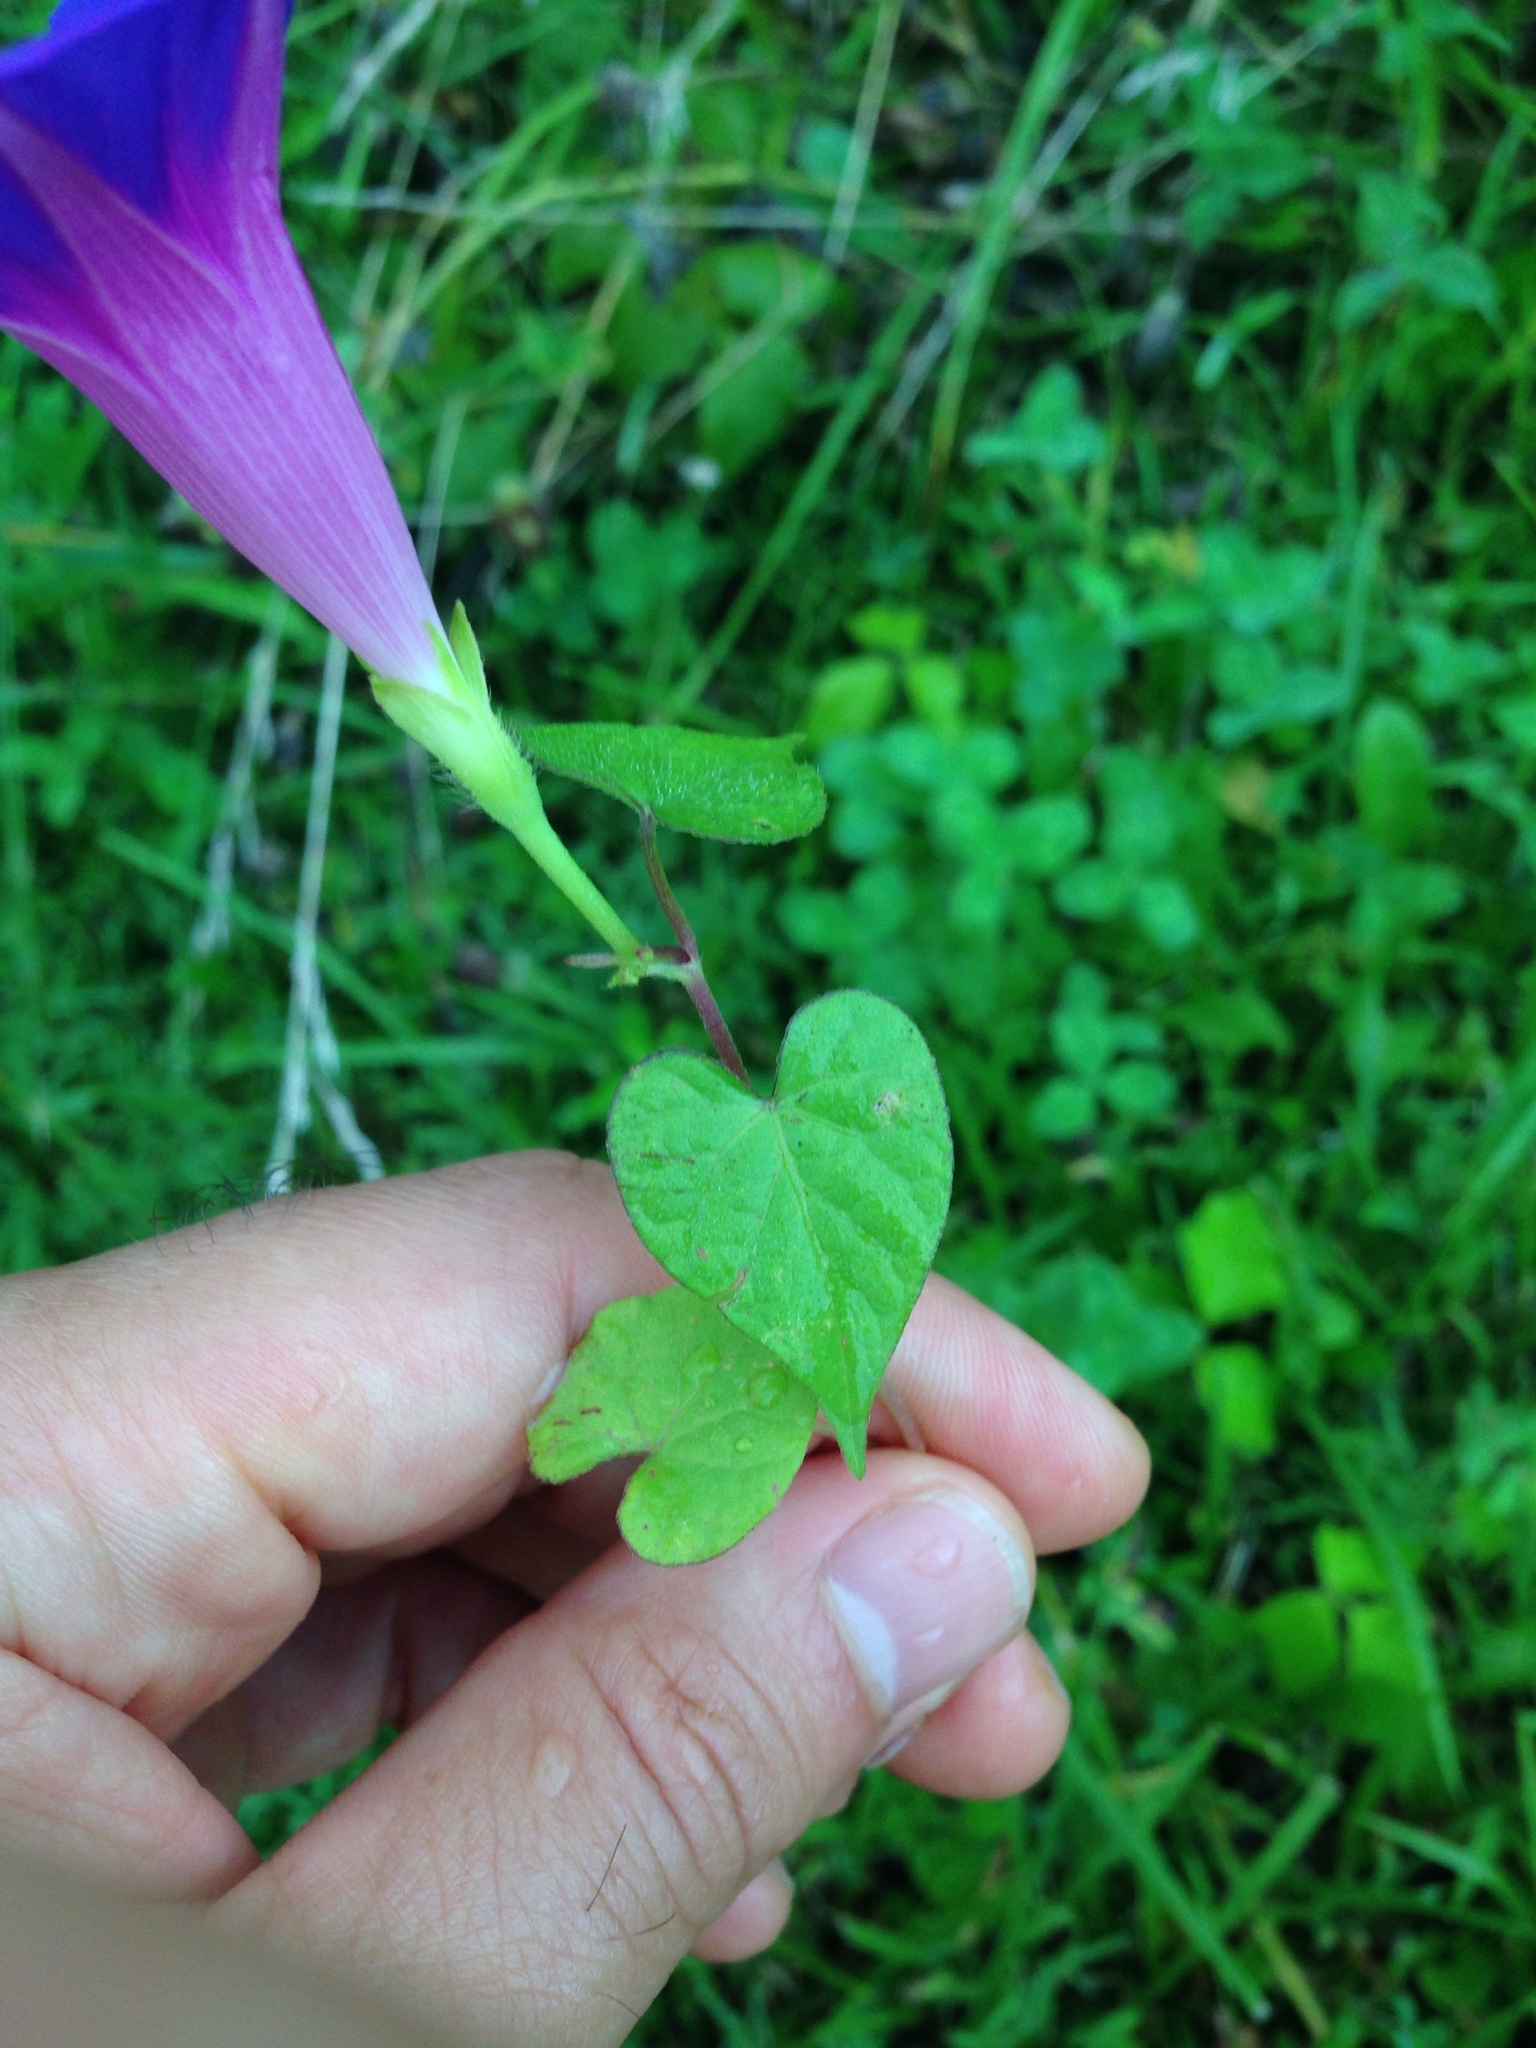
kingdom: Plantae
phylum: Tracheophyta
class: Magnoliopsida
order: Solanales
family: Convolvulaceae
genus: Ipomoea
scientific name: Ipomoea purpurea
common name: Common morning-glory
